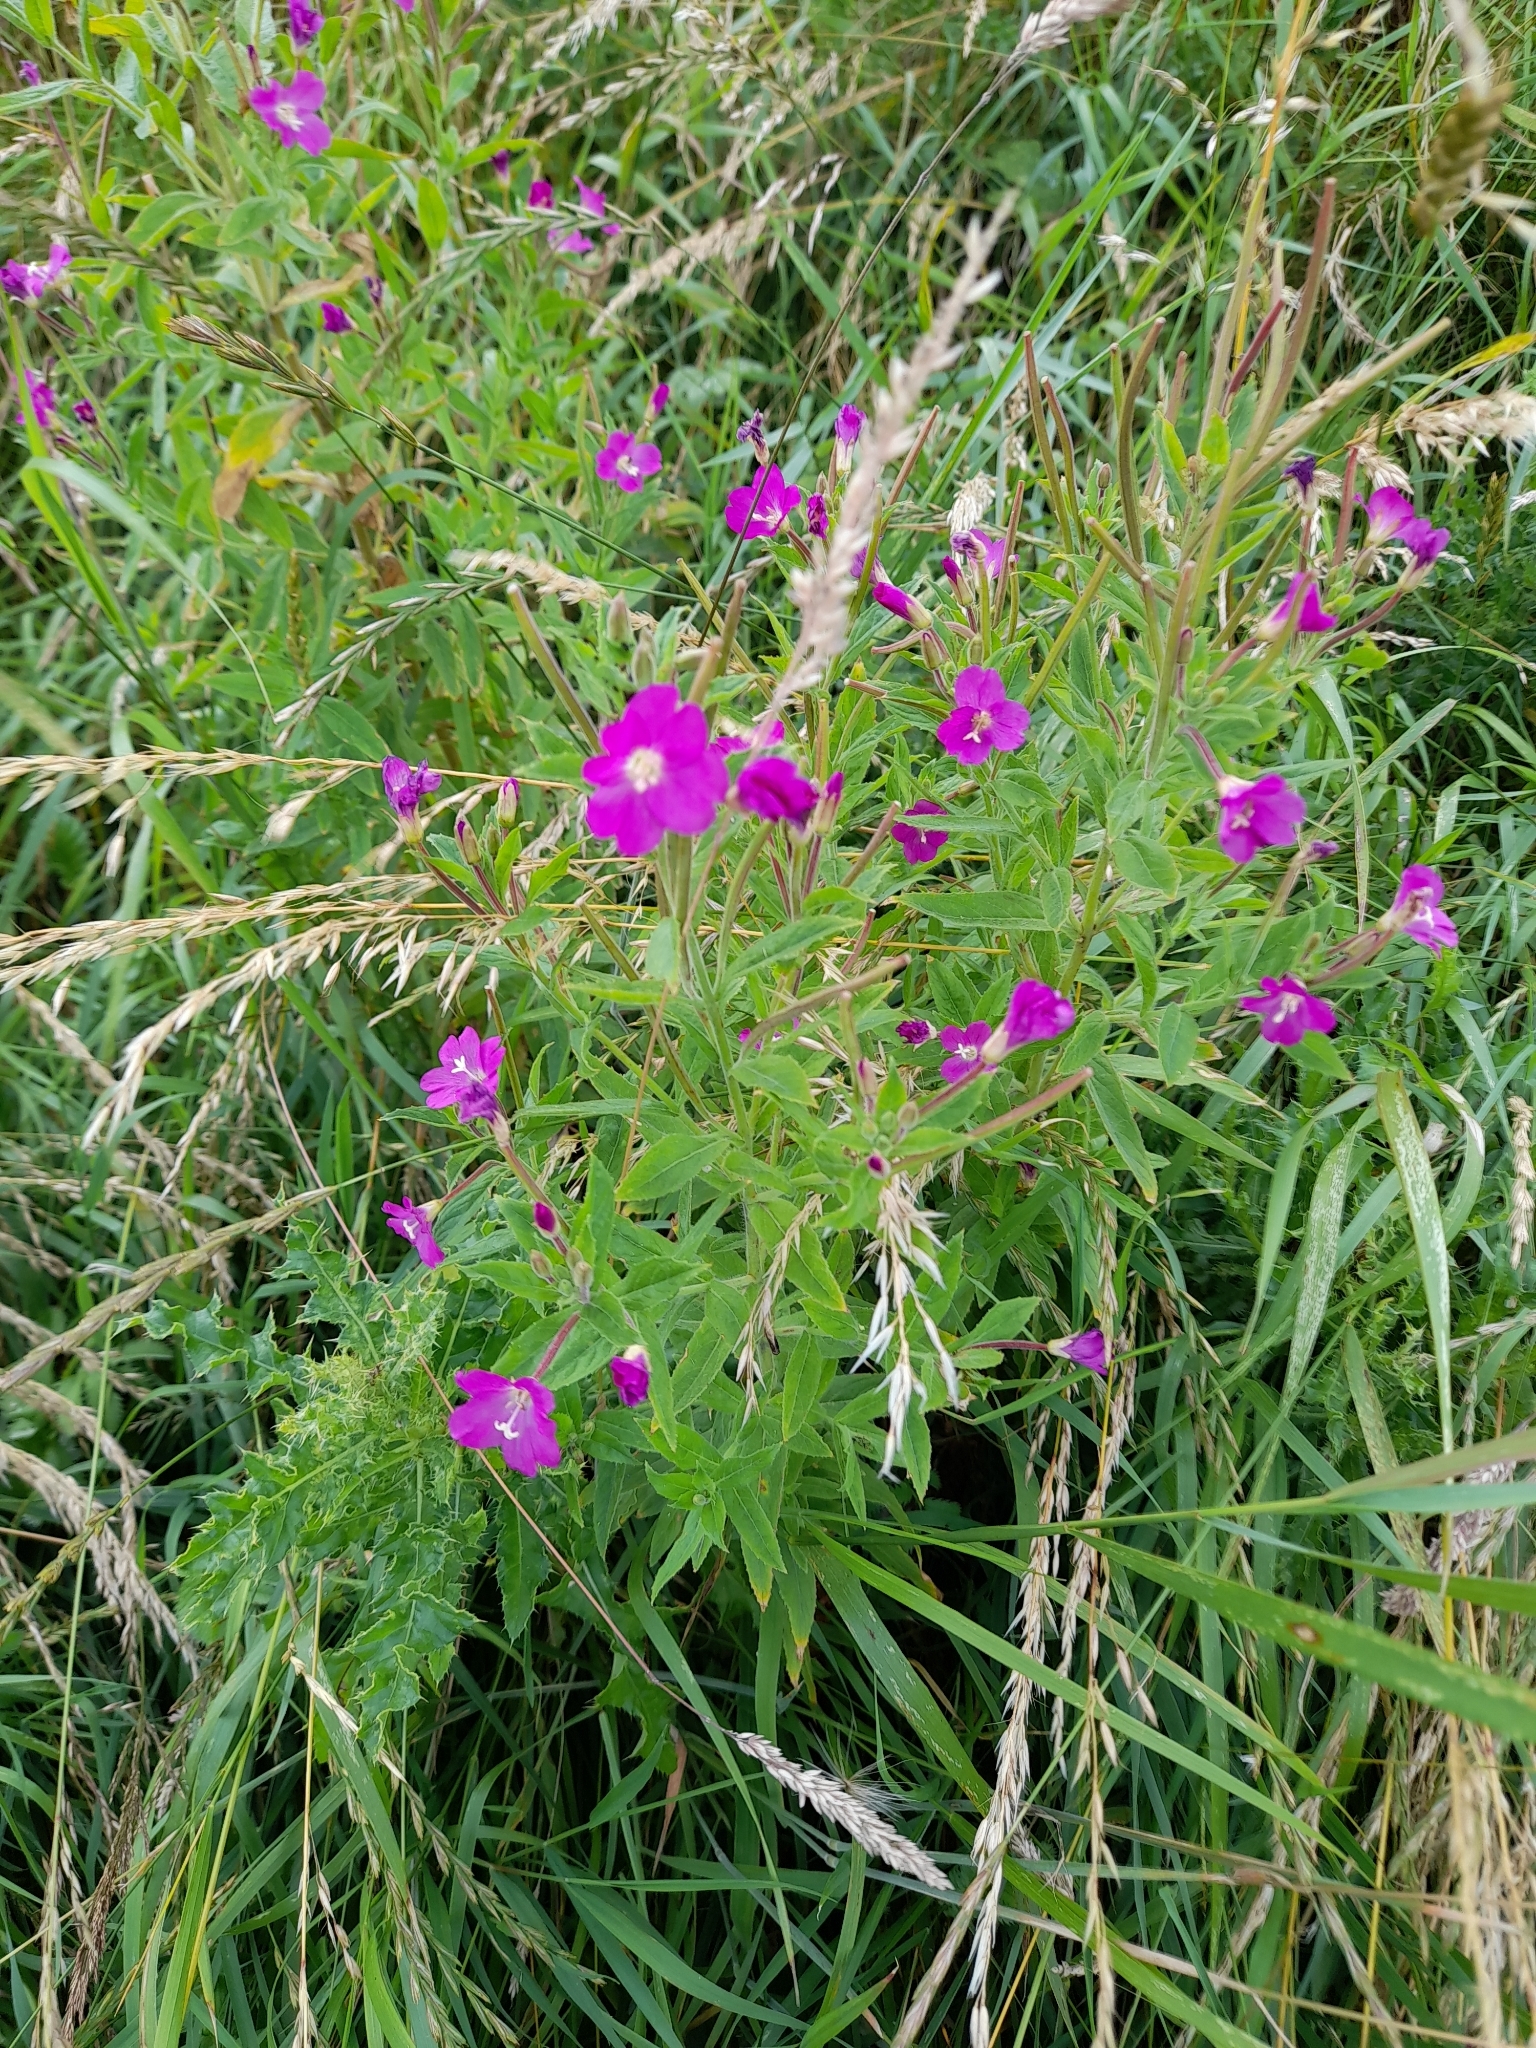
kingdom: Plantae
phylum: Tracheophyta
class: Magnoliopsida
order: Myrtales
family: Onagraceae
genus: Epilobium
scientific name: Epilobium hirsutum
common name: Great willowherb
